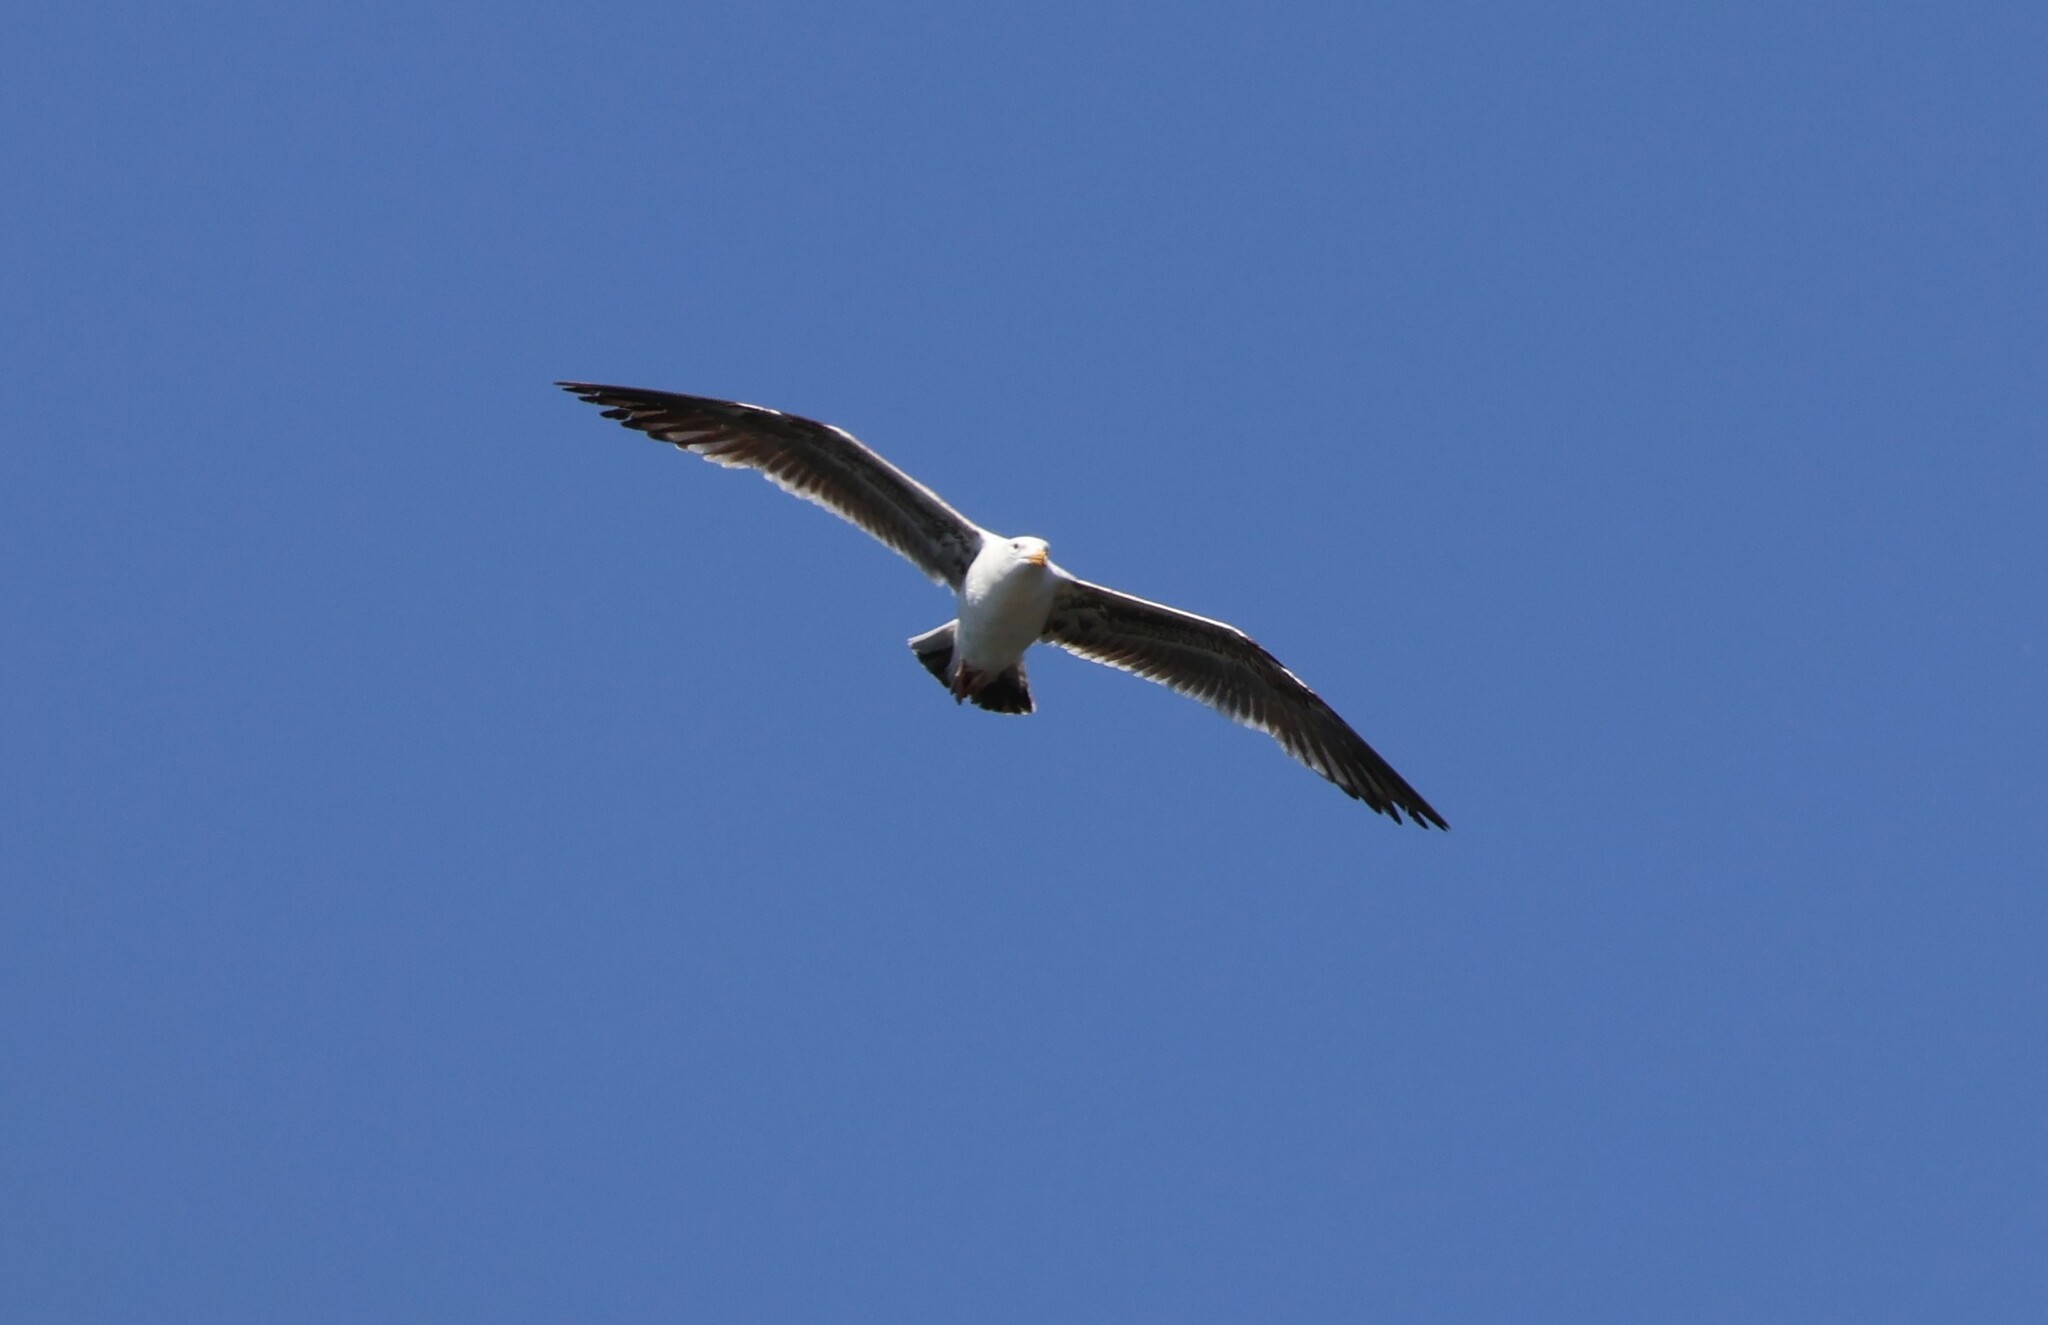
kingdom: Animalia
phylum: Chordata
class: Aves
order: Charadriiformes
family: Laridae
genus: Larus
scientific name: Larus occidentalis
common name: Western gull
